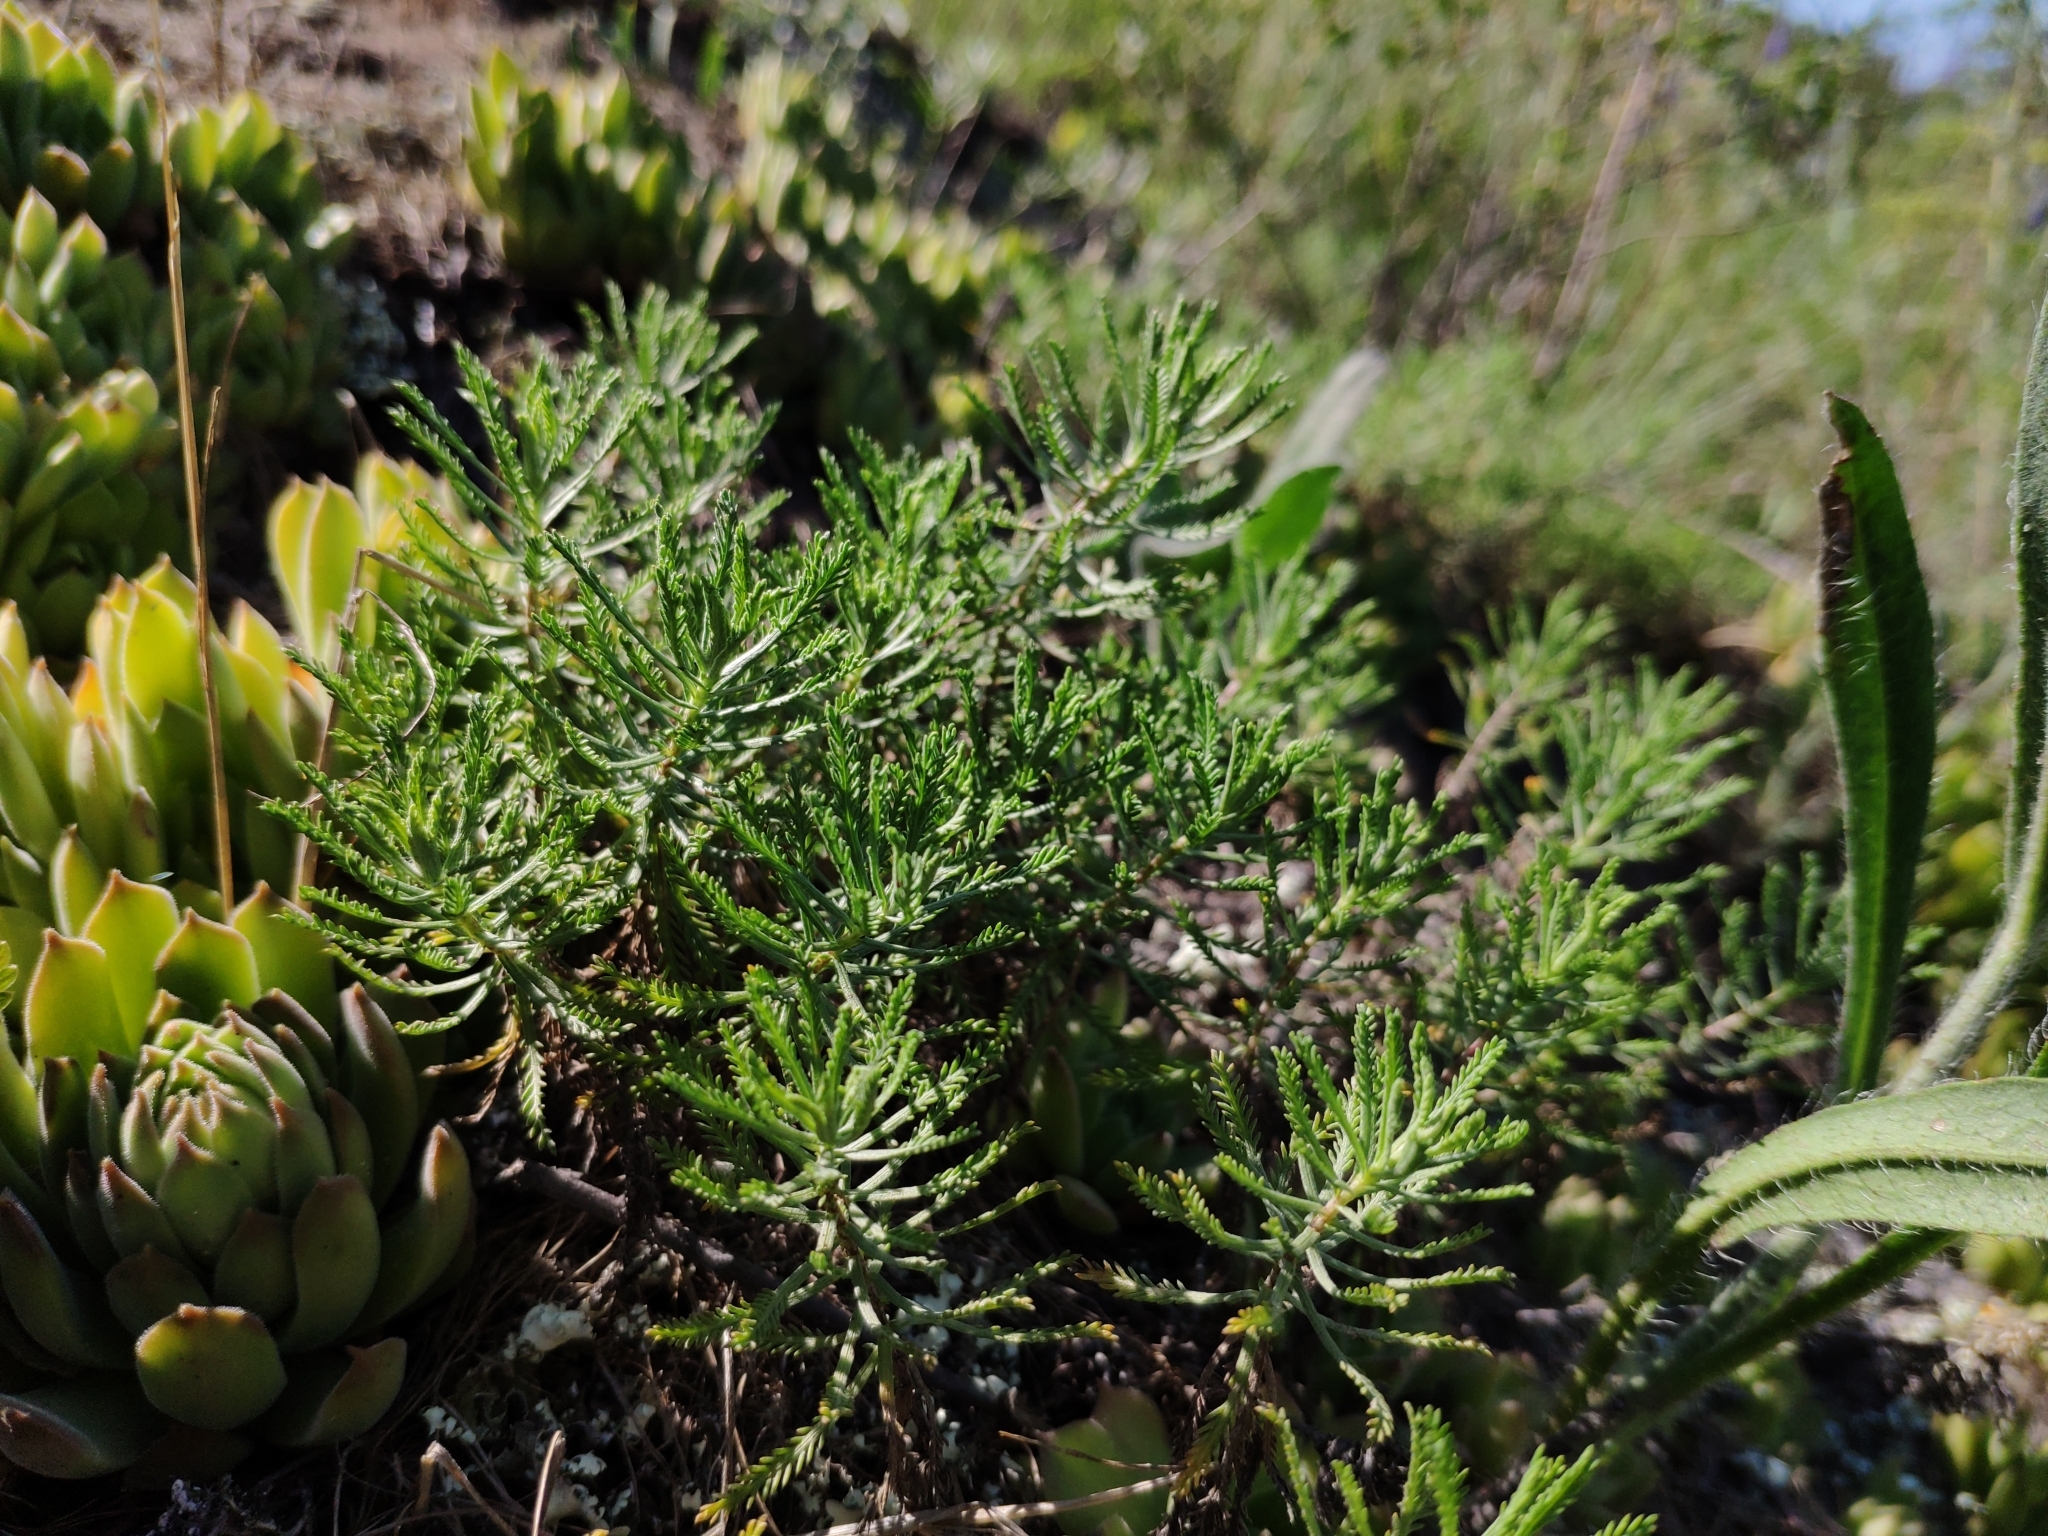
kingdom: Plantae
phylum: Tracheophyta
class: Magnoliopsida
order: Asterales
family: Asteraceae
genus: Achillea
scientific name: Achillea ochroleuca
